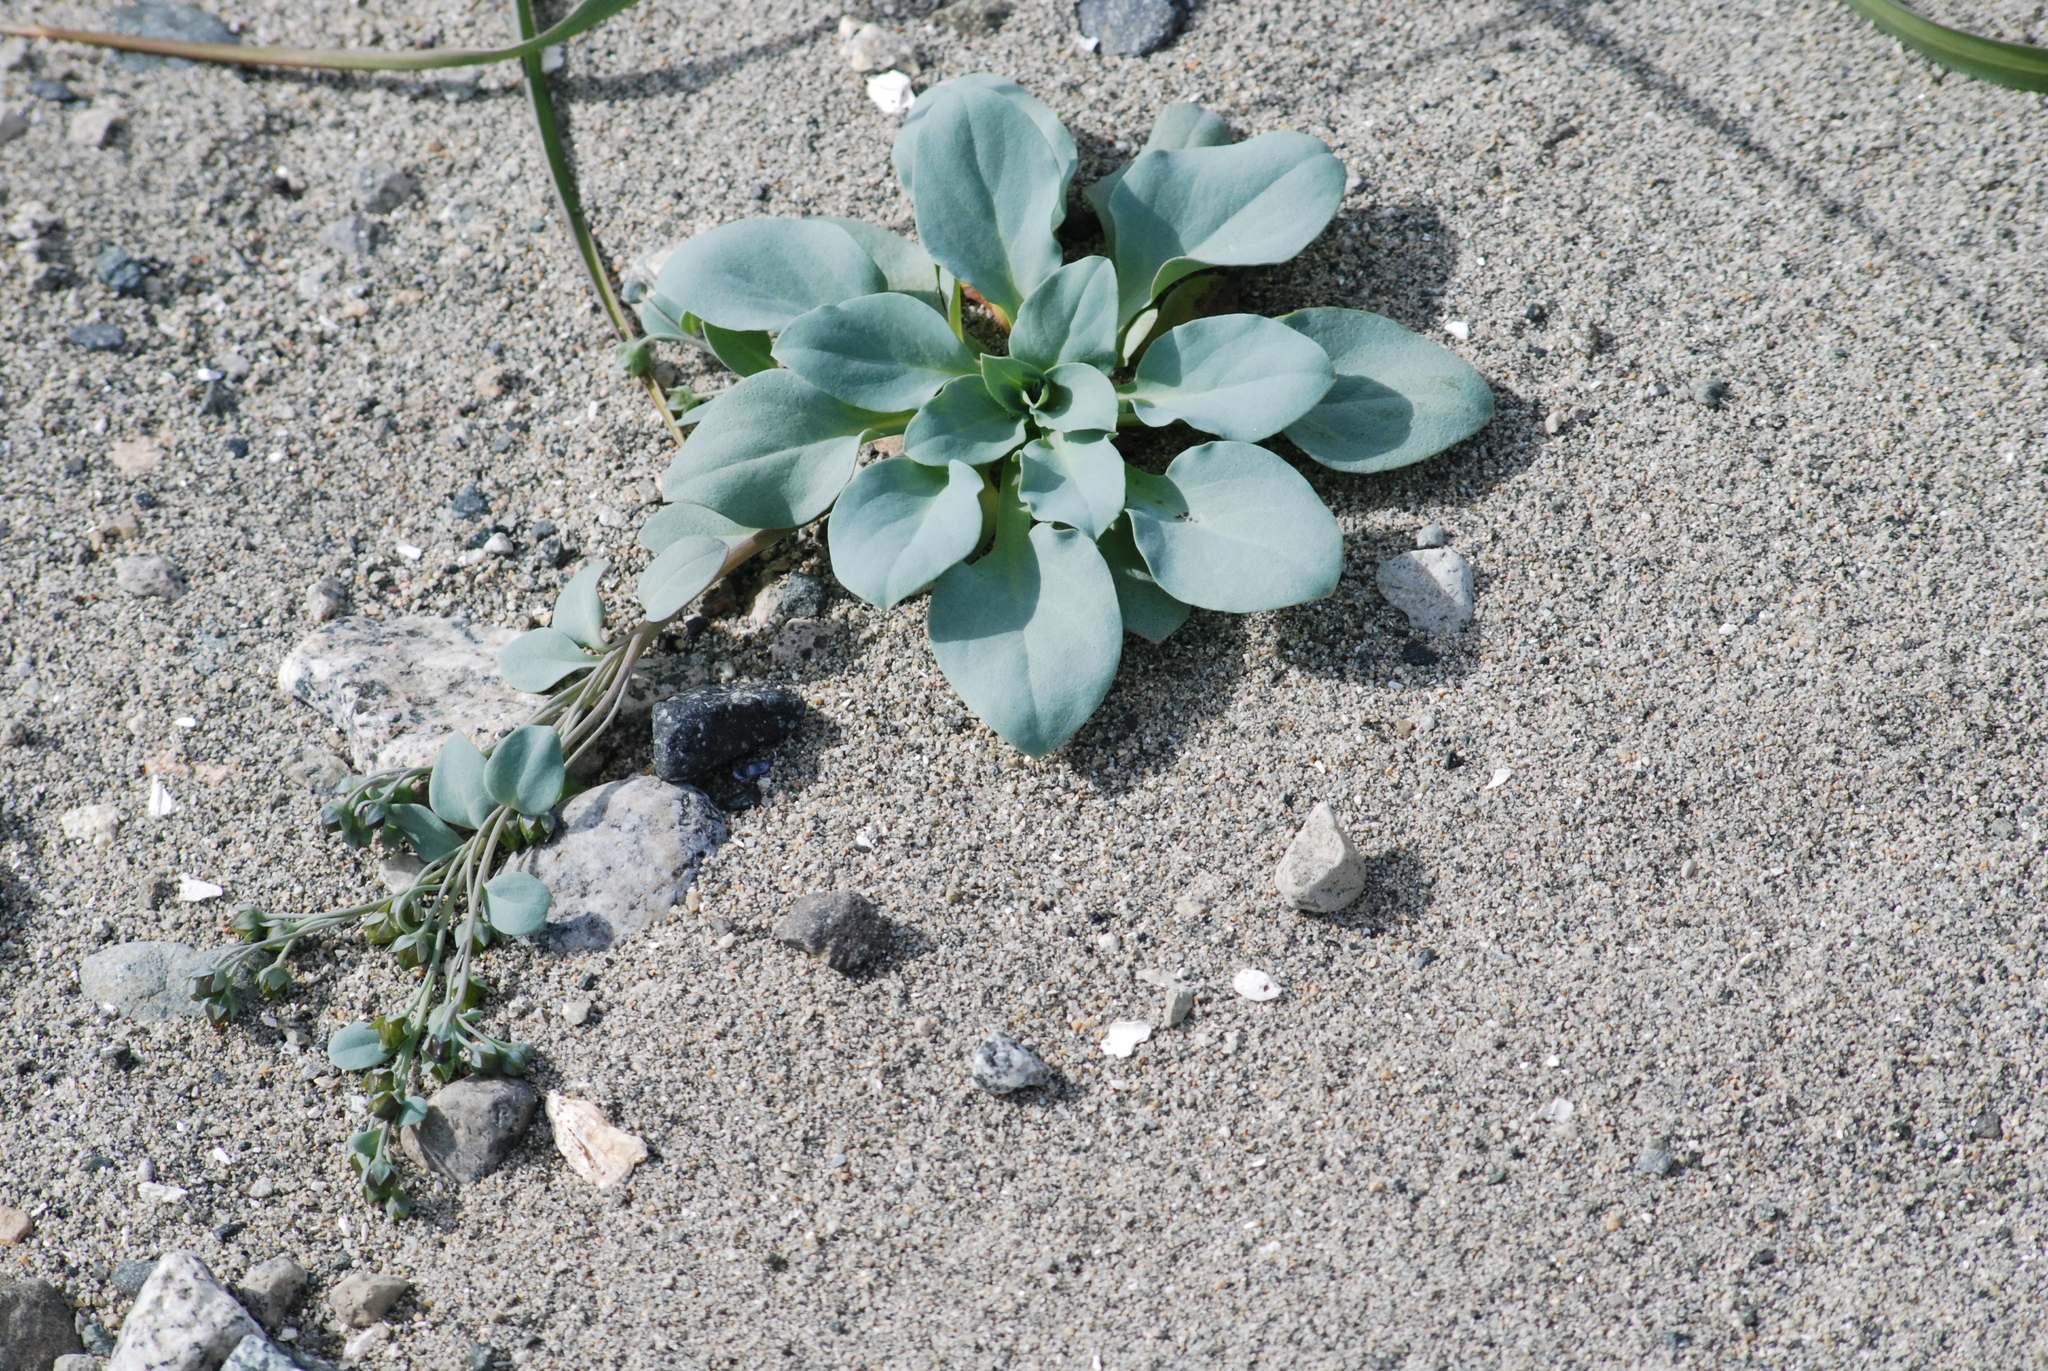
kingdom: Plantae
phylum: Tracheophyta
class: Magnoliopsida
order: Boraginales
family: Boraginaceae
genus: Mertensia
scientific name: Mertensia maritima
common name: Oysterplant
